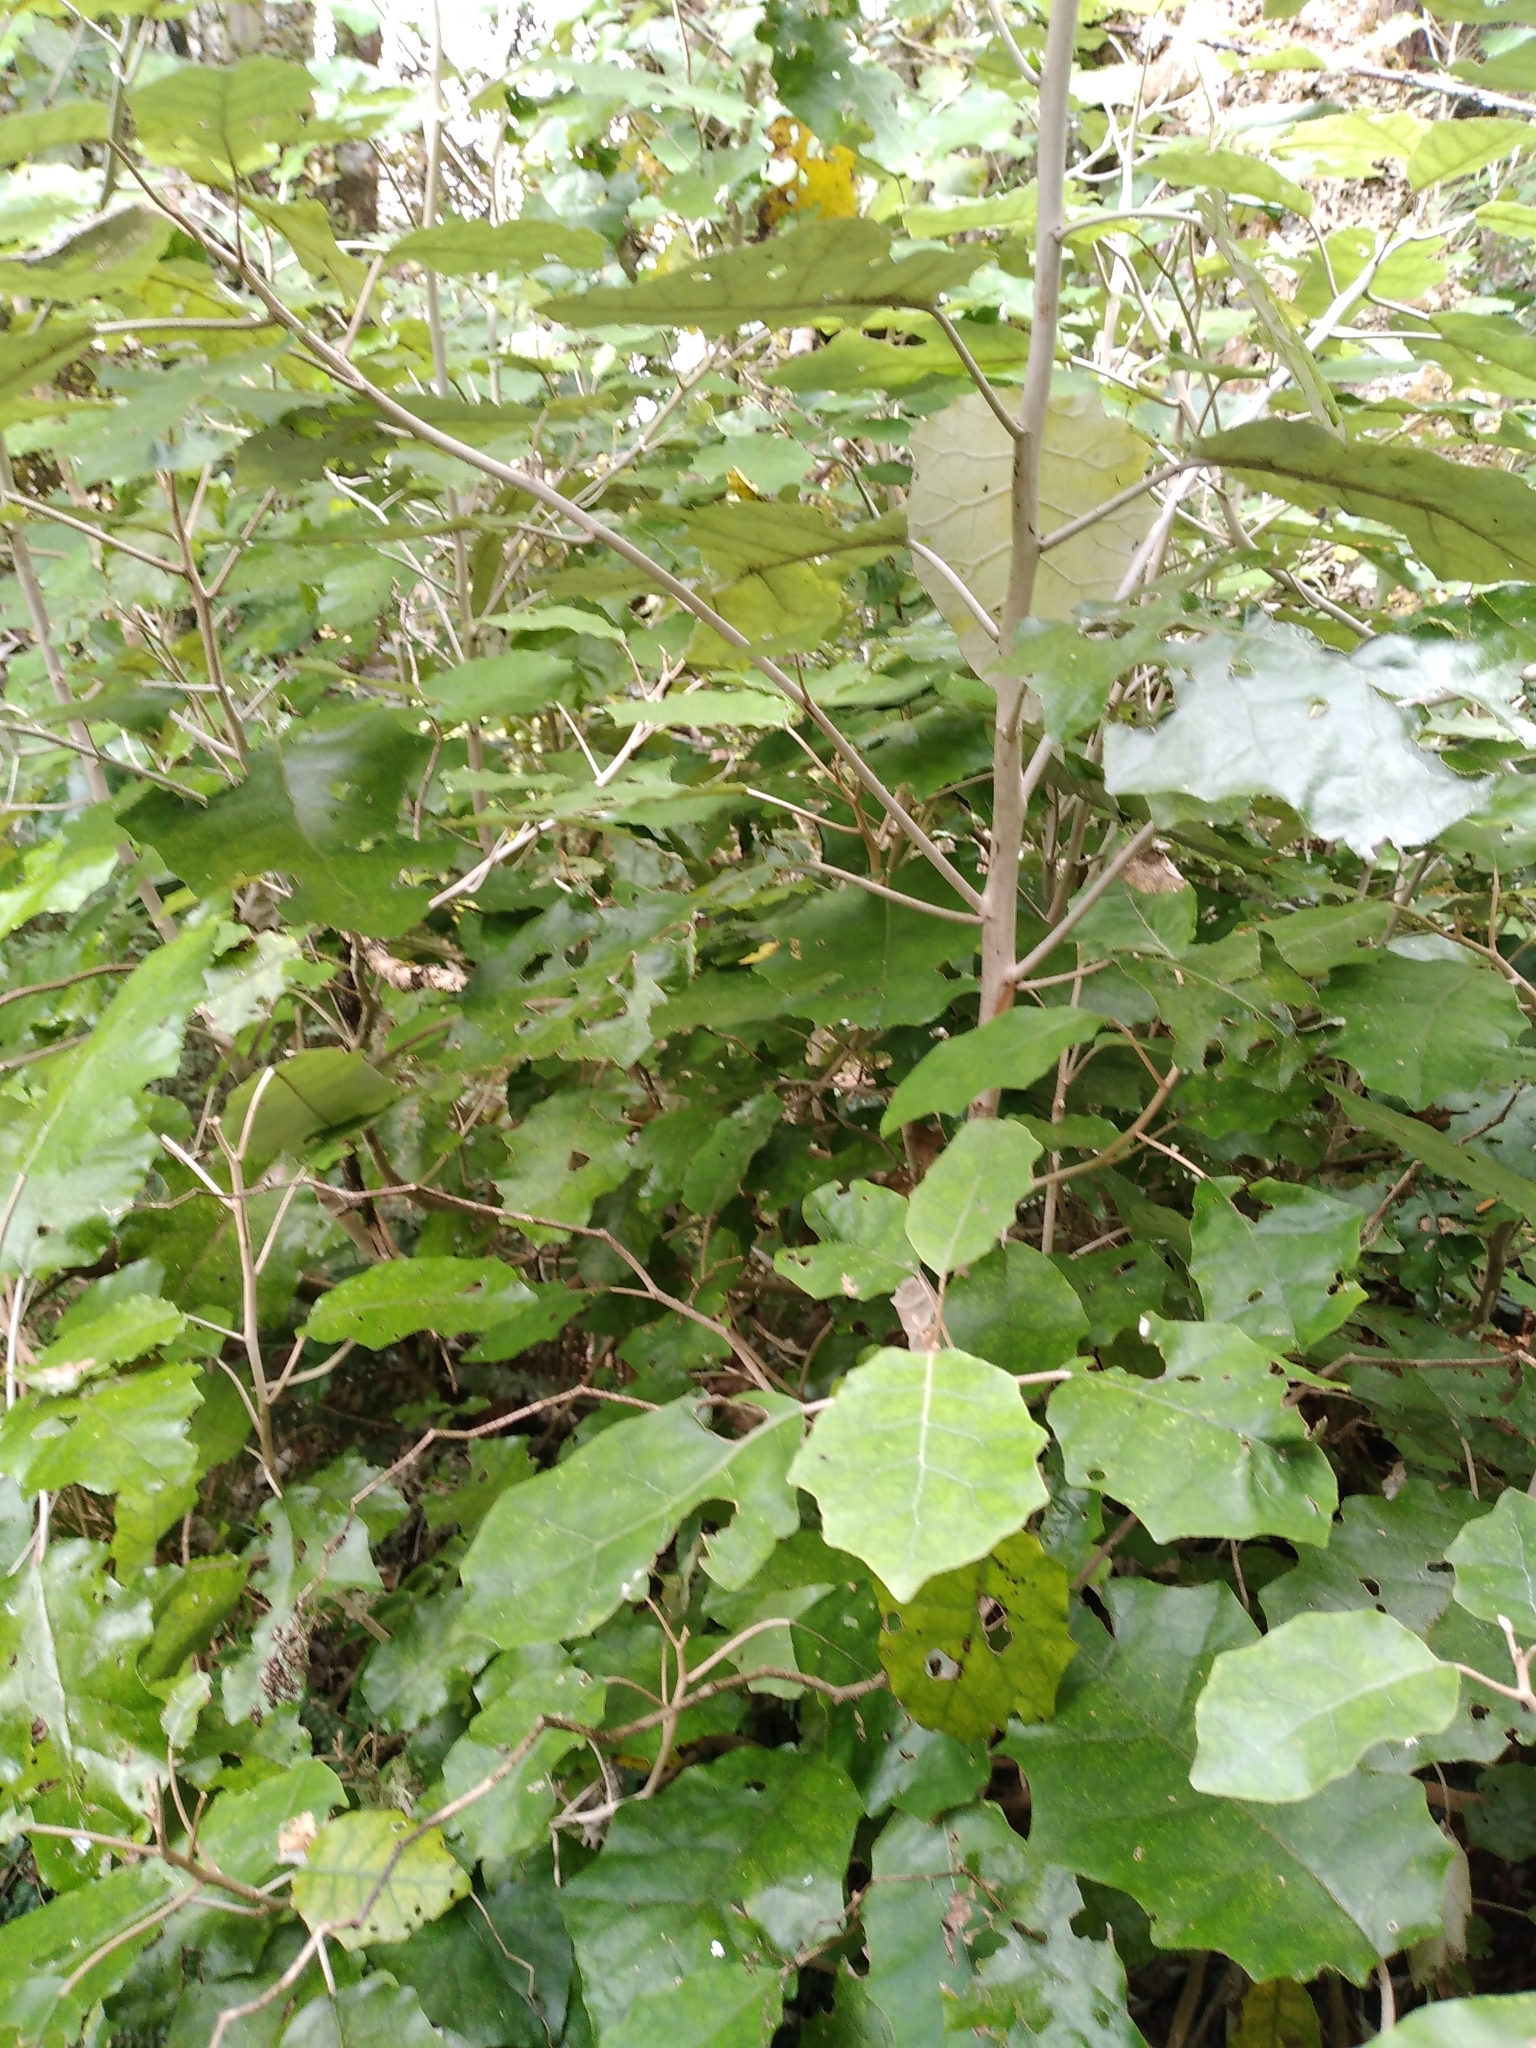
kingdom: Plantae
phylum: Tracheophyta
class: Magnoliopsida
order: Asterales
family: Asteraceae
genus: Brachyglottis
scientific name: Brachyglottis repanda
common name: Hedge ragwort
